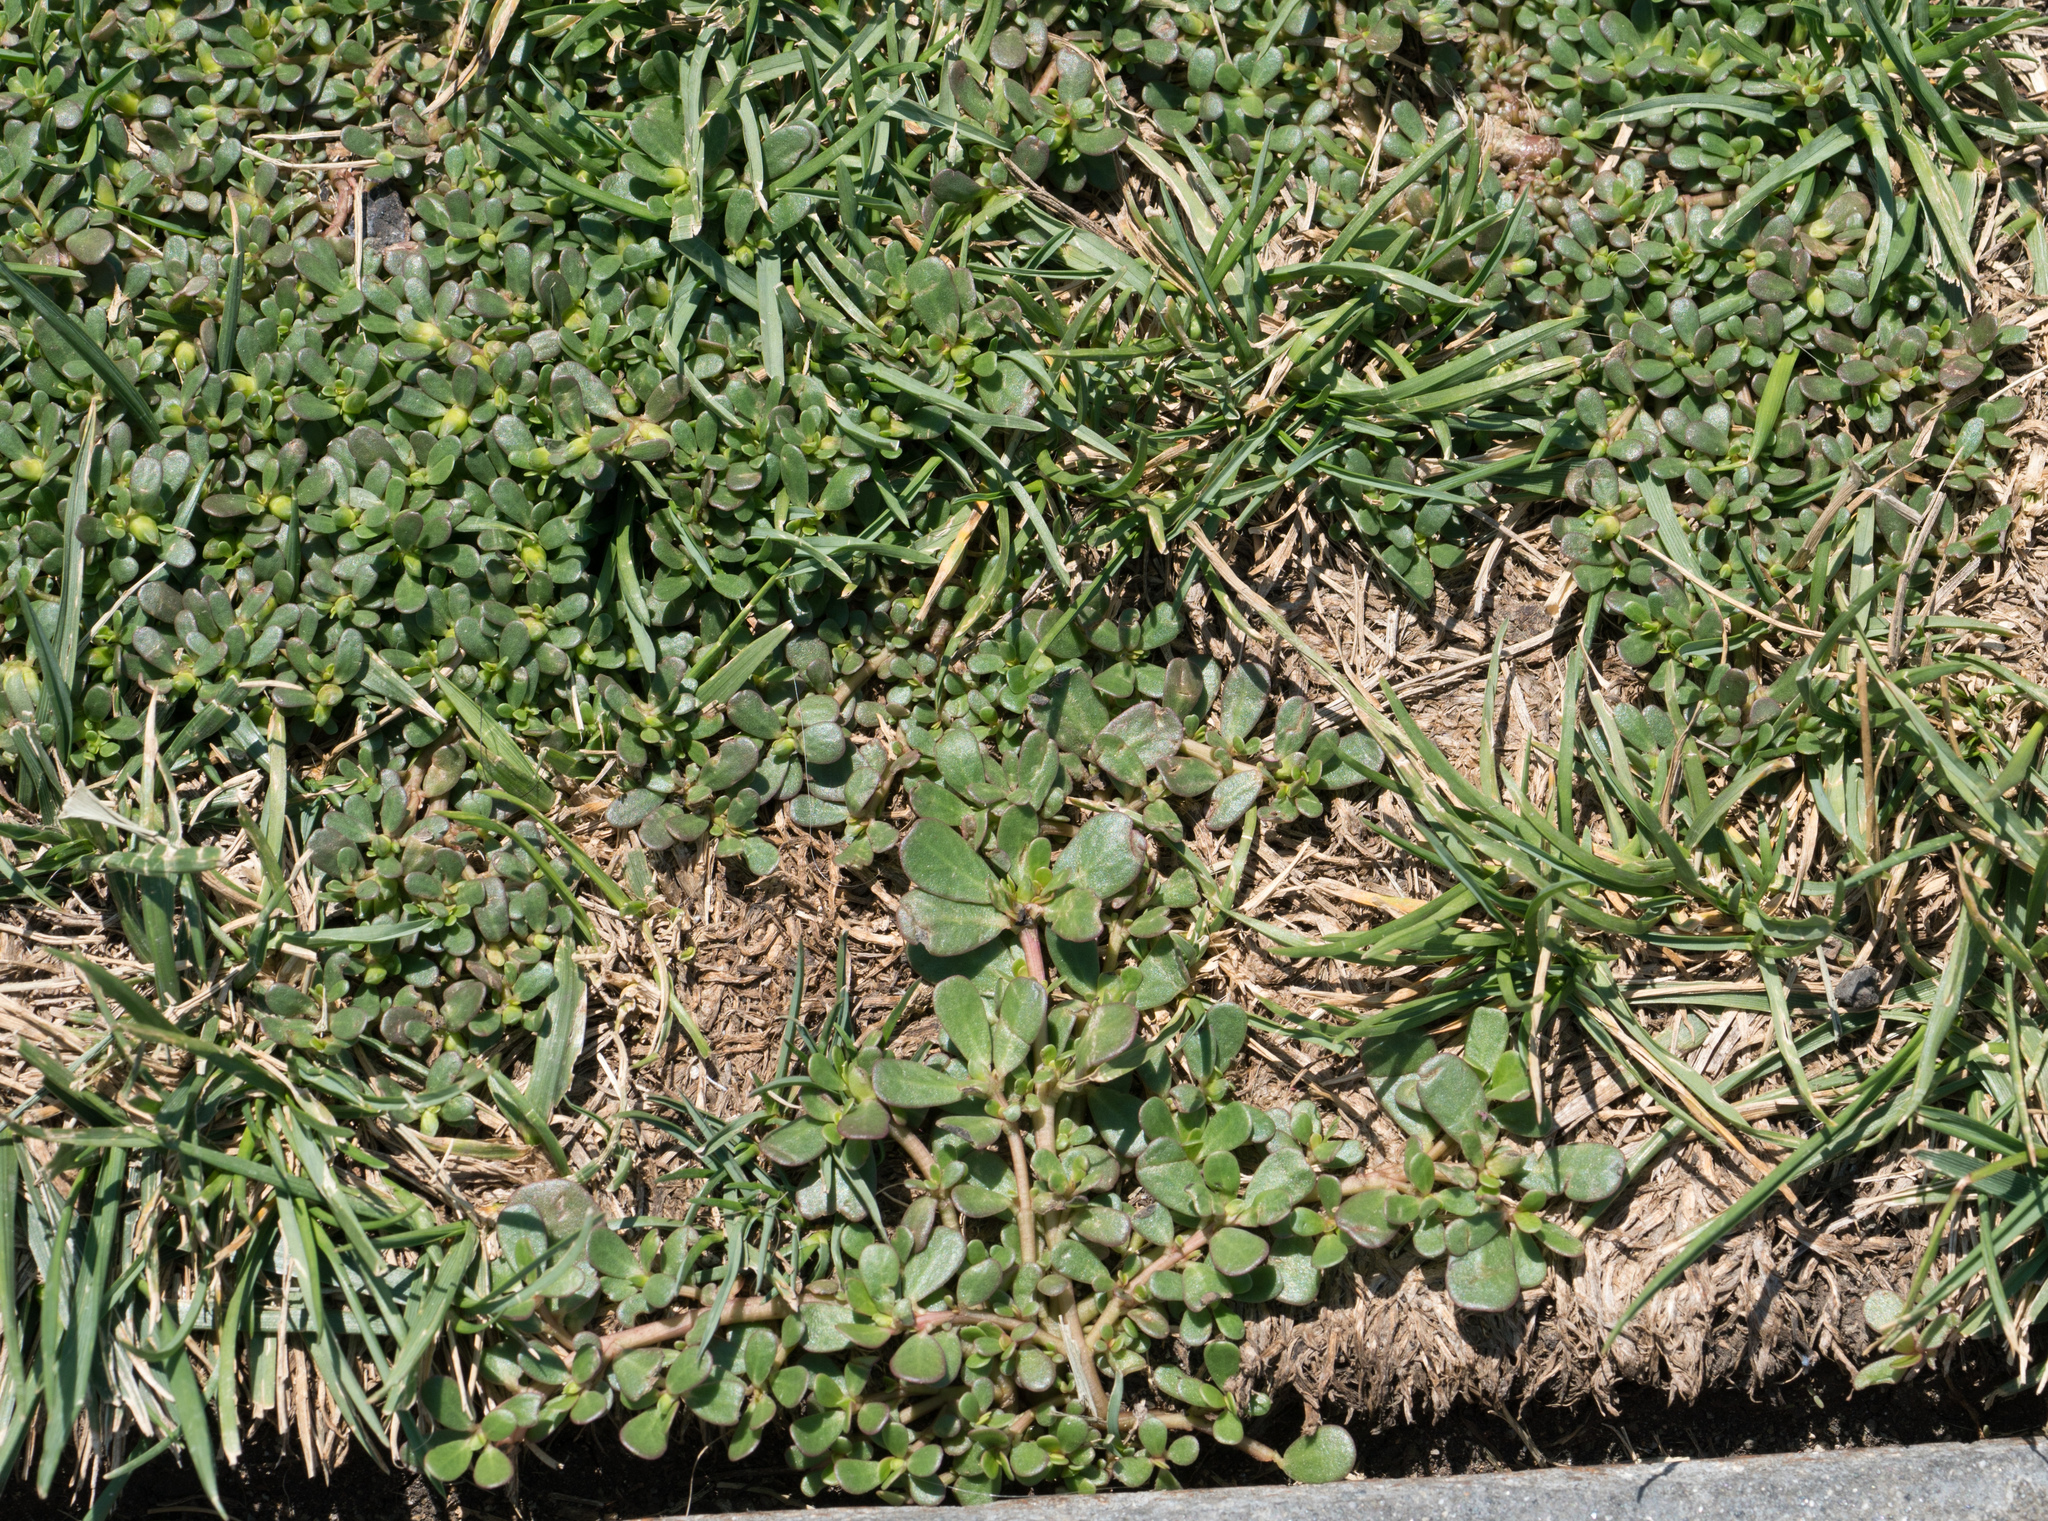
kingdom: Plantae
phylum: Tracheophyta
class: Magnoliopsida
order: Caryophyllales
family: Portulacaceae
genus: Portulaca
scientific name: Portulaca oleracea
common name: Common purslane
